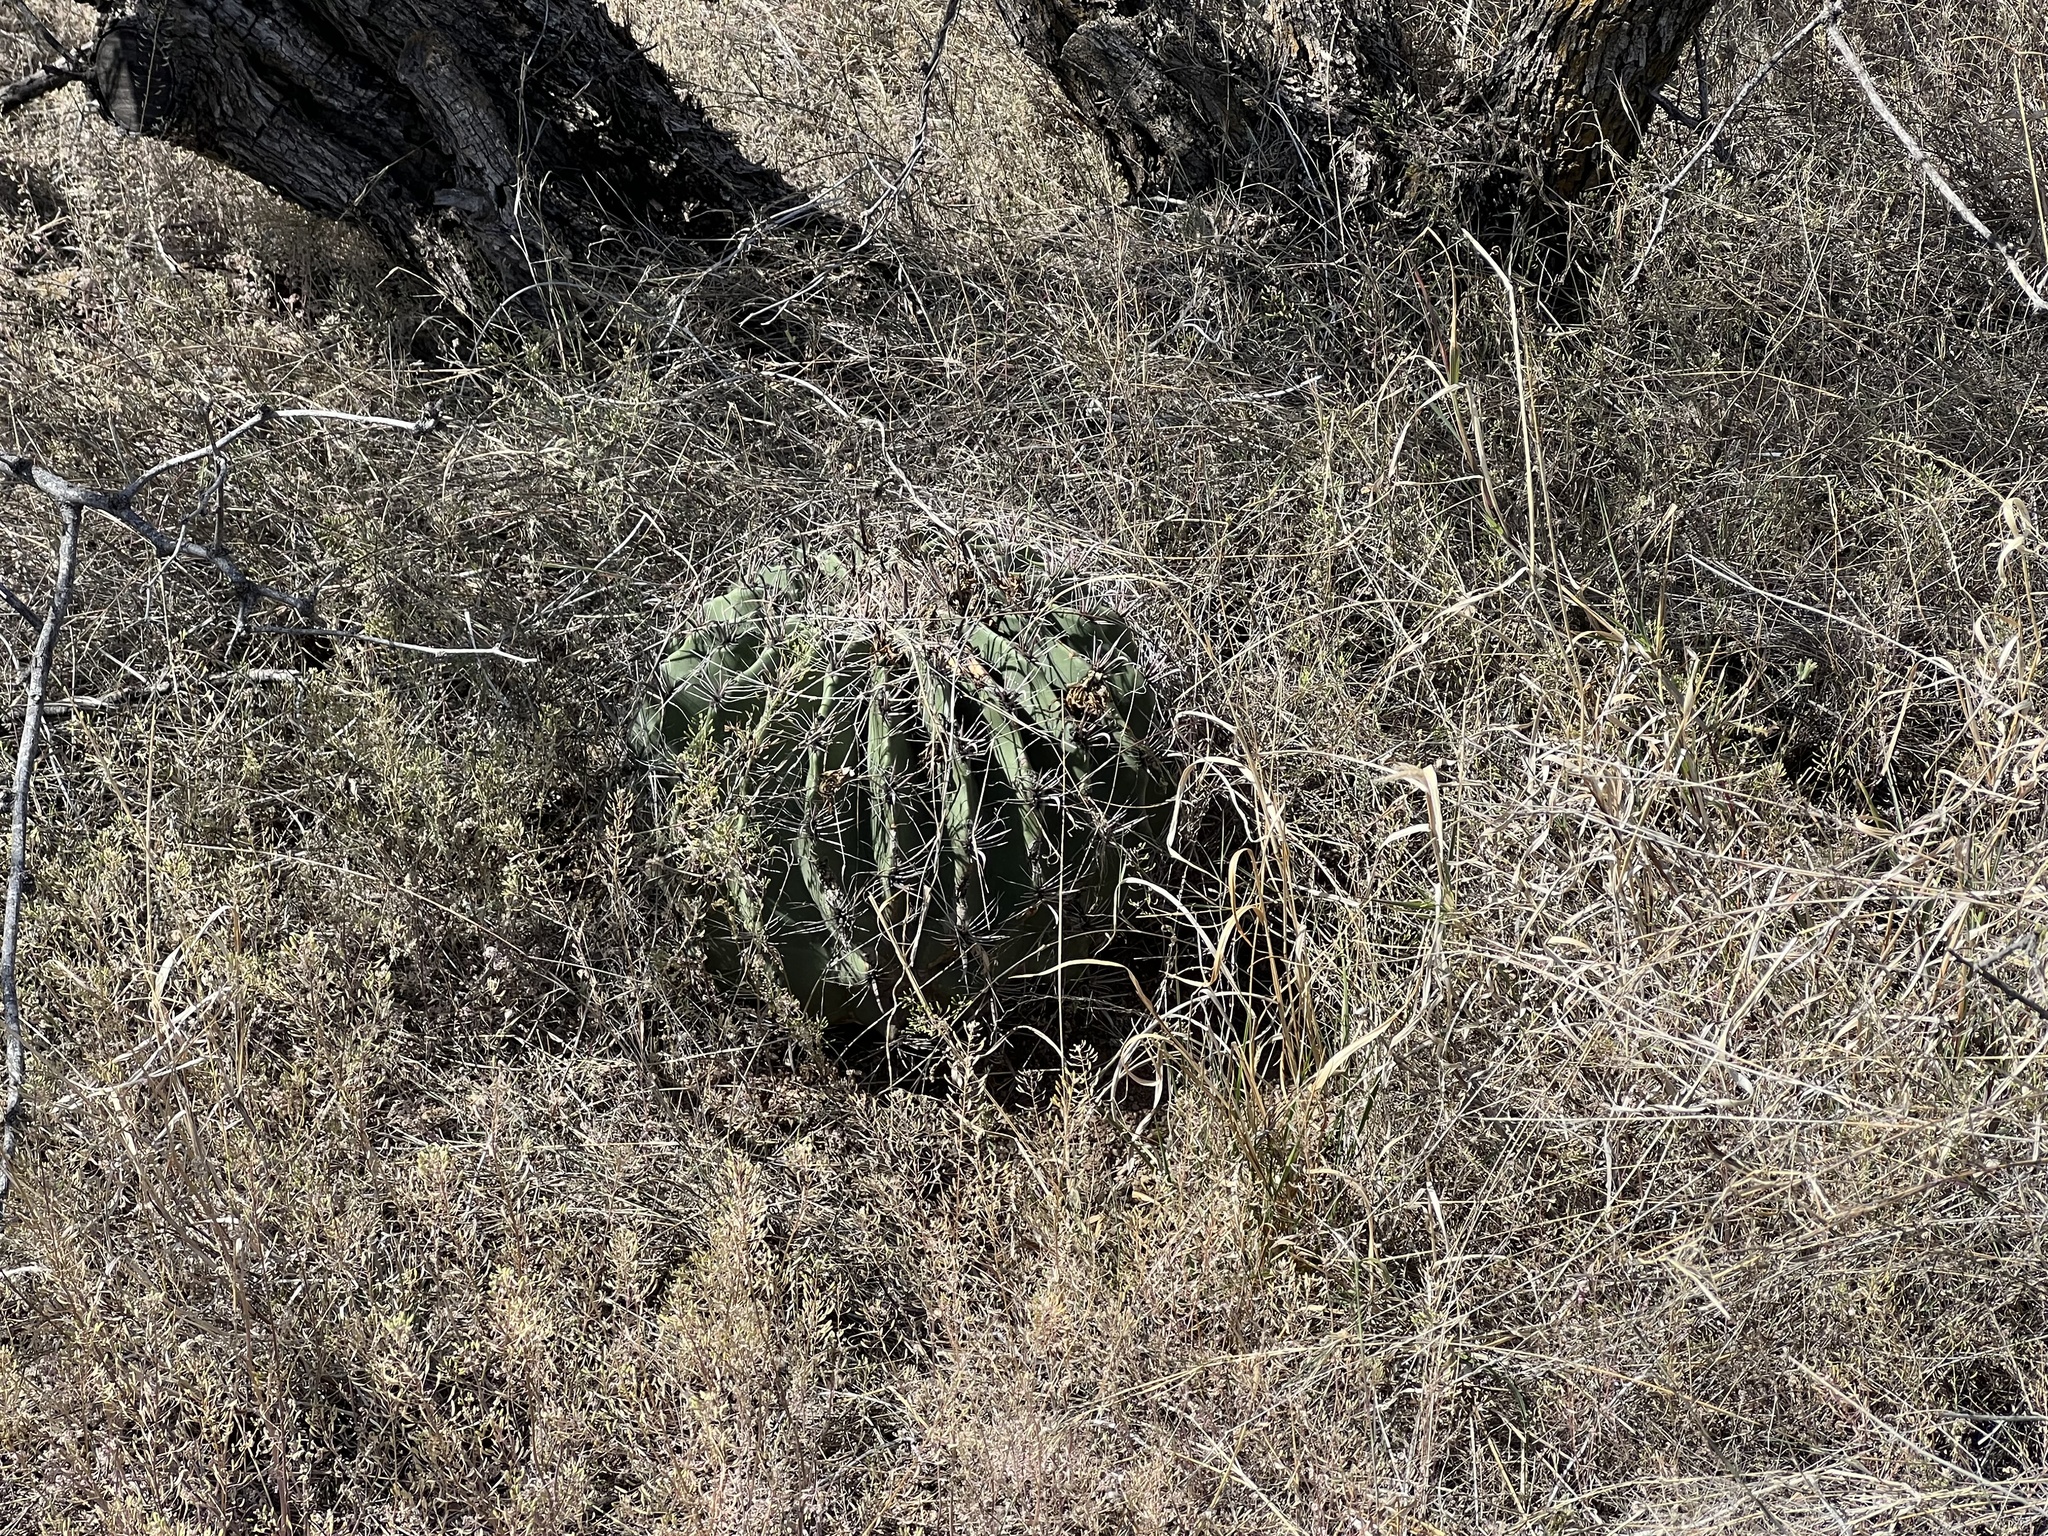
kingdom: Plantae
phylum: Tracheophyta
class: Magnoliopsida
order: Caryophyllales
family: Cactaceae
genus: Ferocactus
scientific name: Ferocactus wislizeni
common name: Candy barrel cactus
